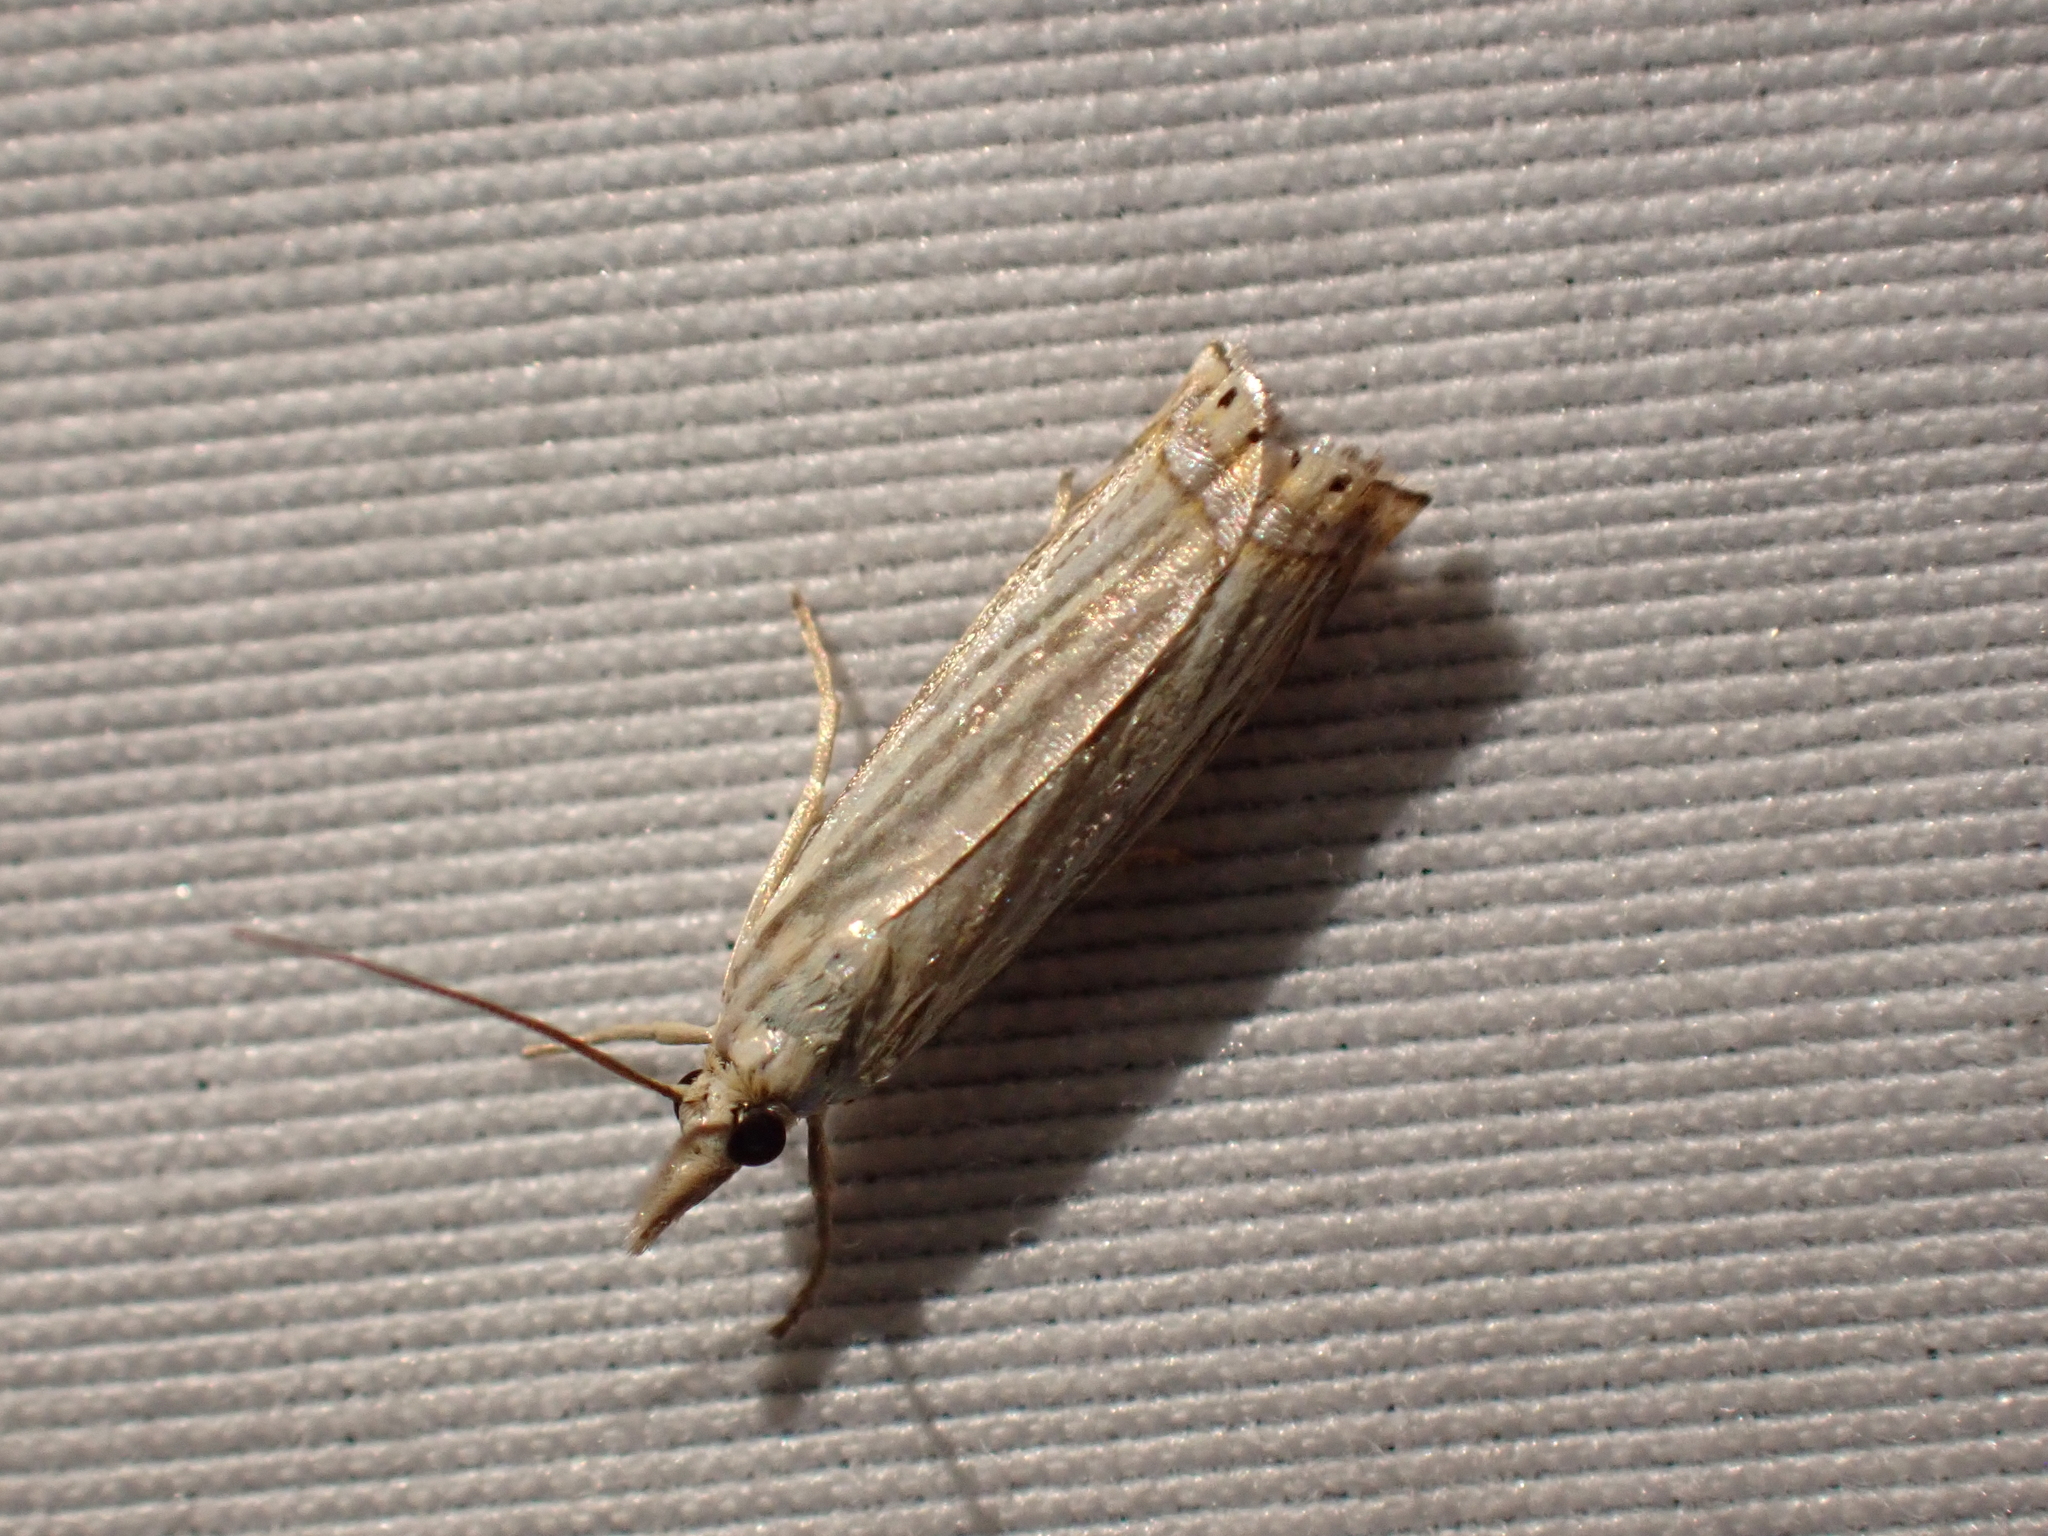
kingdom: Animalia
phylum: Arthropoda
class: Insecta
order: Lepidoptera
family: Crambidae
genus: Chrysoteuchia
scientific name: Chrysoteuchia topiarius
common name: Topiary grass-veneer
